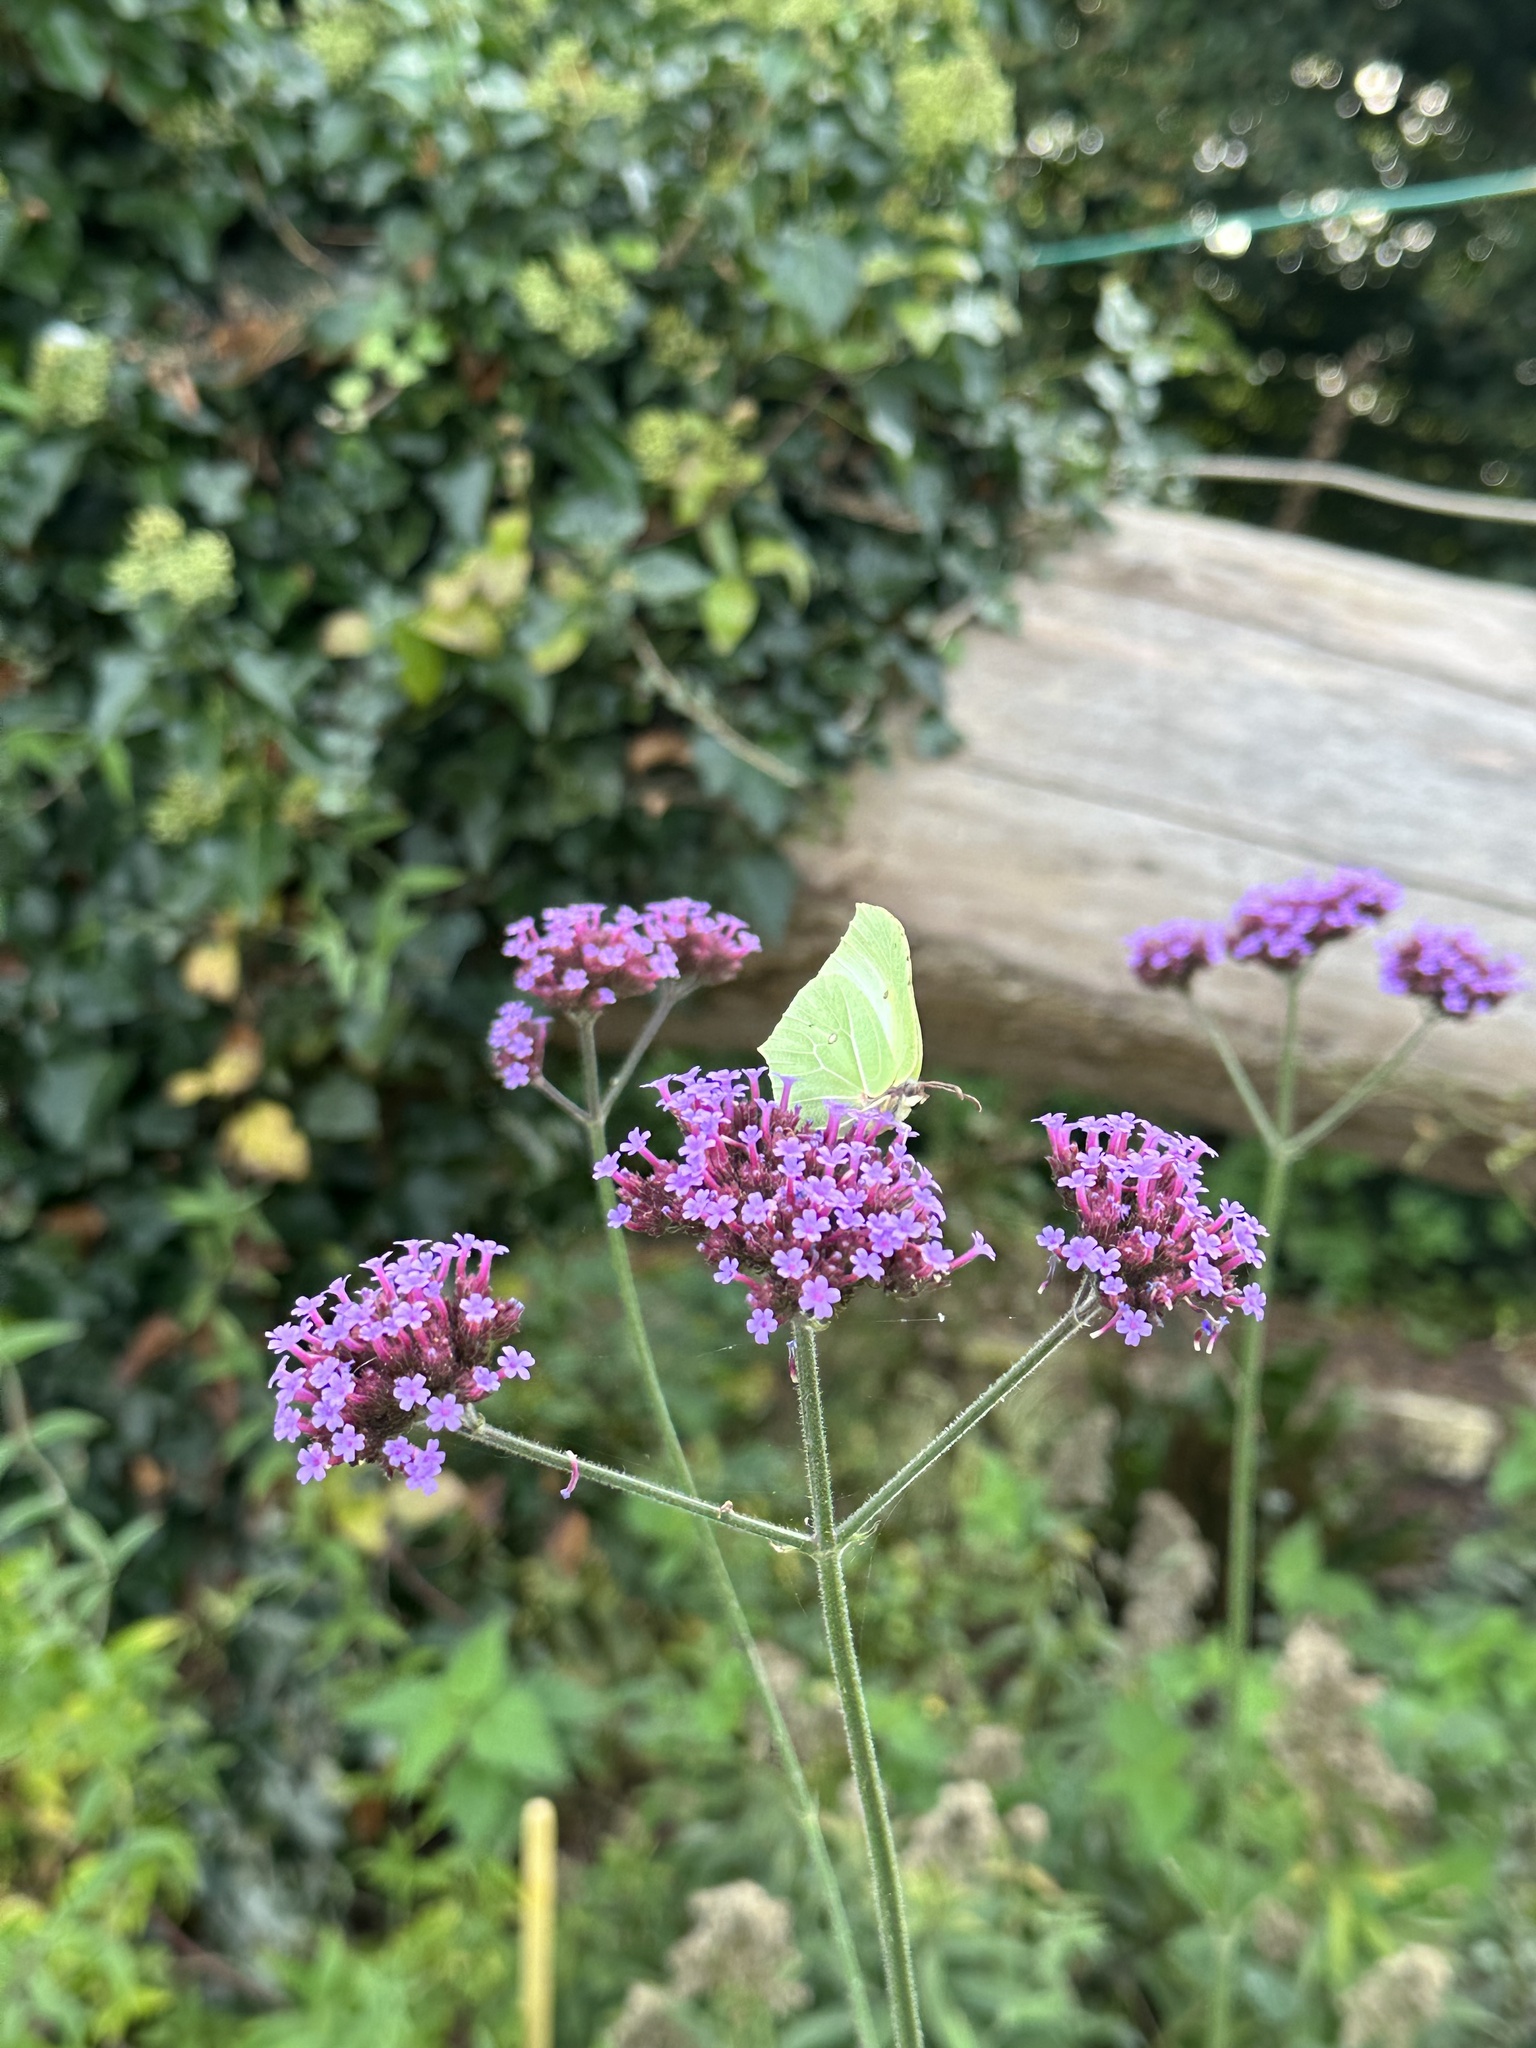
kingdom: Animalia
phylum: Arthropoda
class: Insecta
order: Lepidoptera
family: Pieridae
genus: Gonepteryx
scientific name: Gonepteryx rhamni
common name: Brimstone
